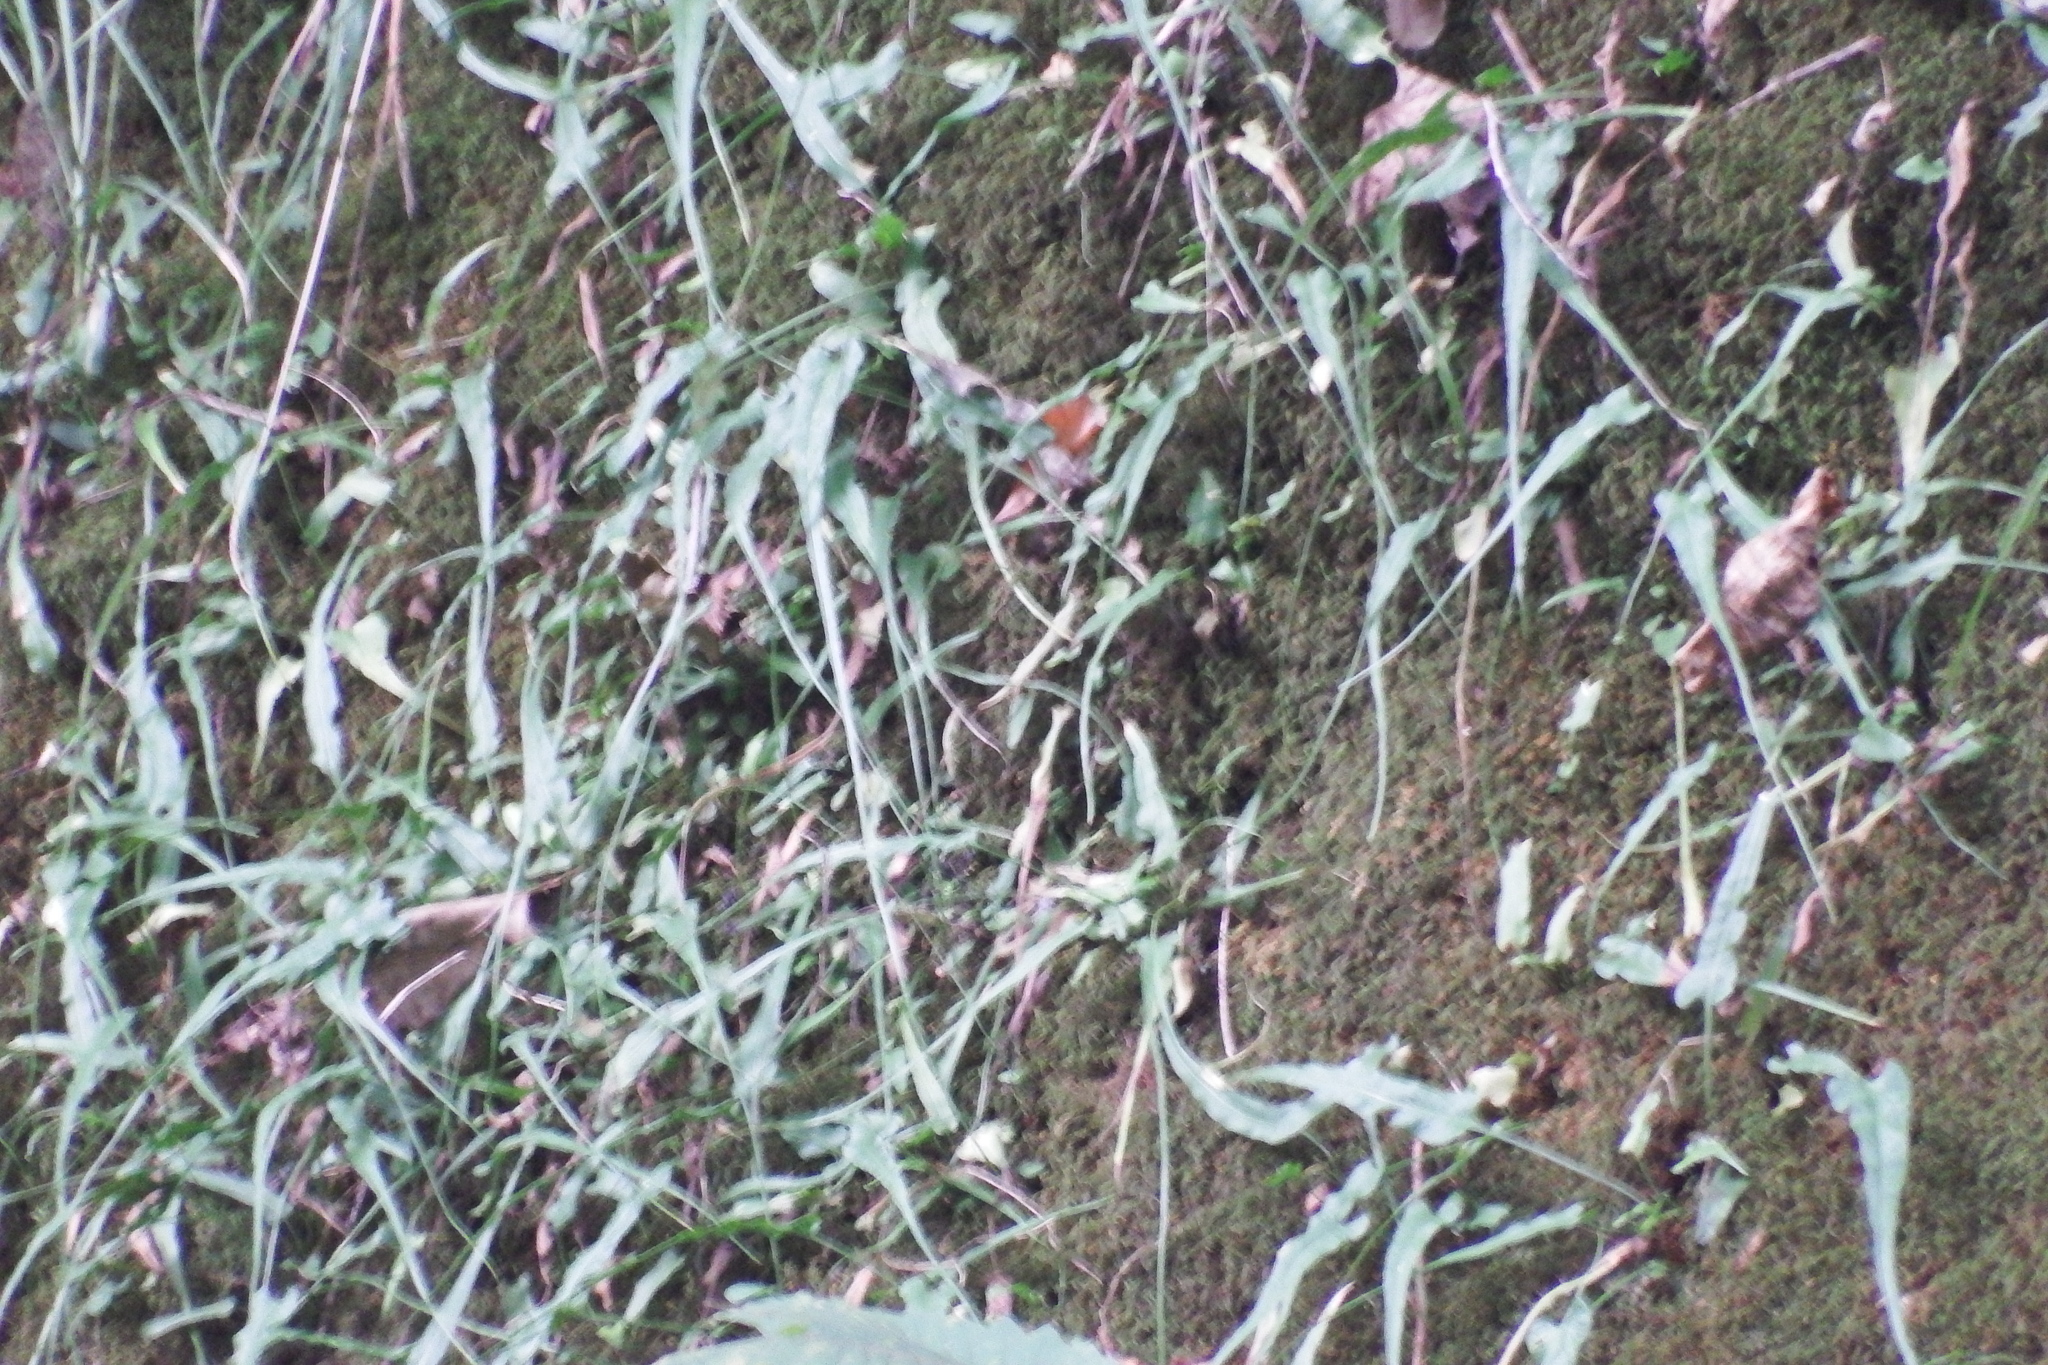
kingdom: Plantae
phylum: Tracheophyta
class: Polypodiopsida
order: Polypodiales
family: Aspleniaceae
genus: Asplenium
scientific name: Asplenium rhizophyllum
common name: Walking fern
